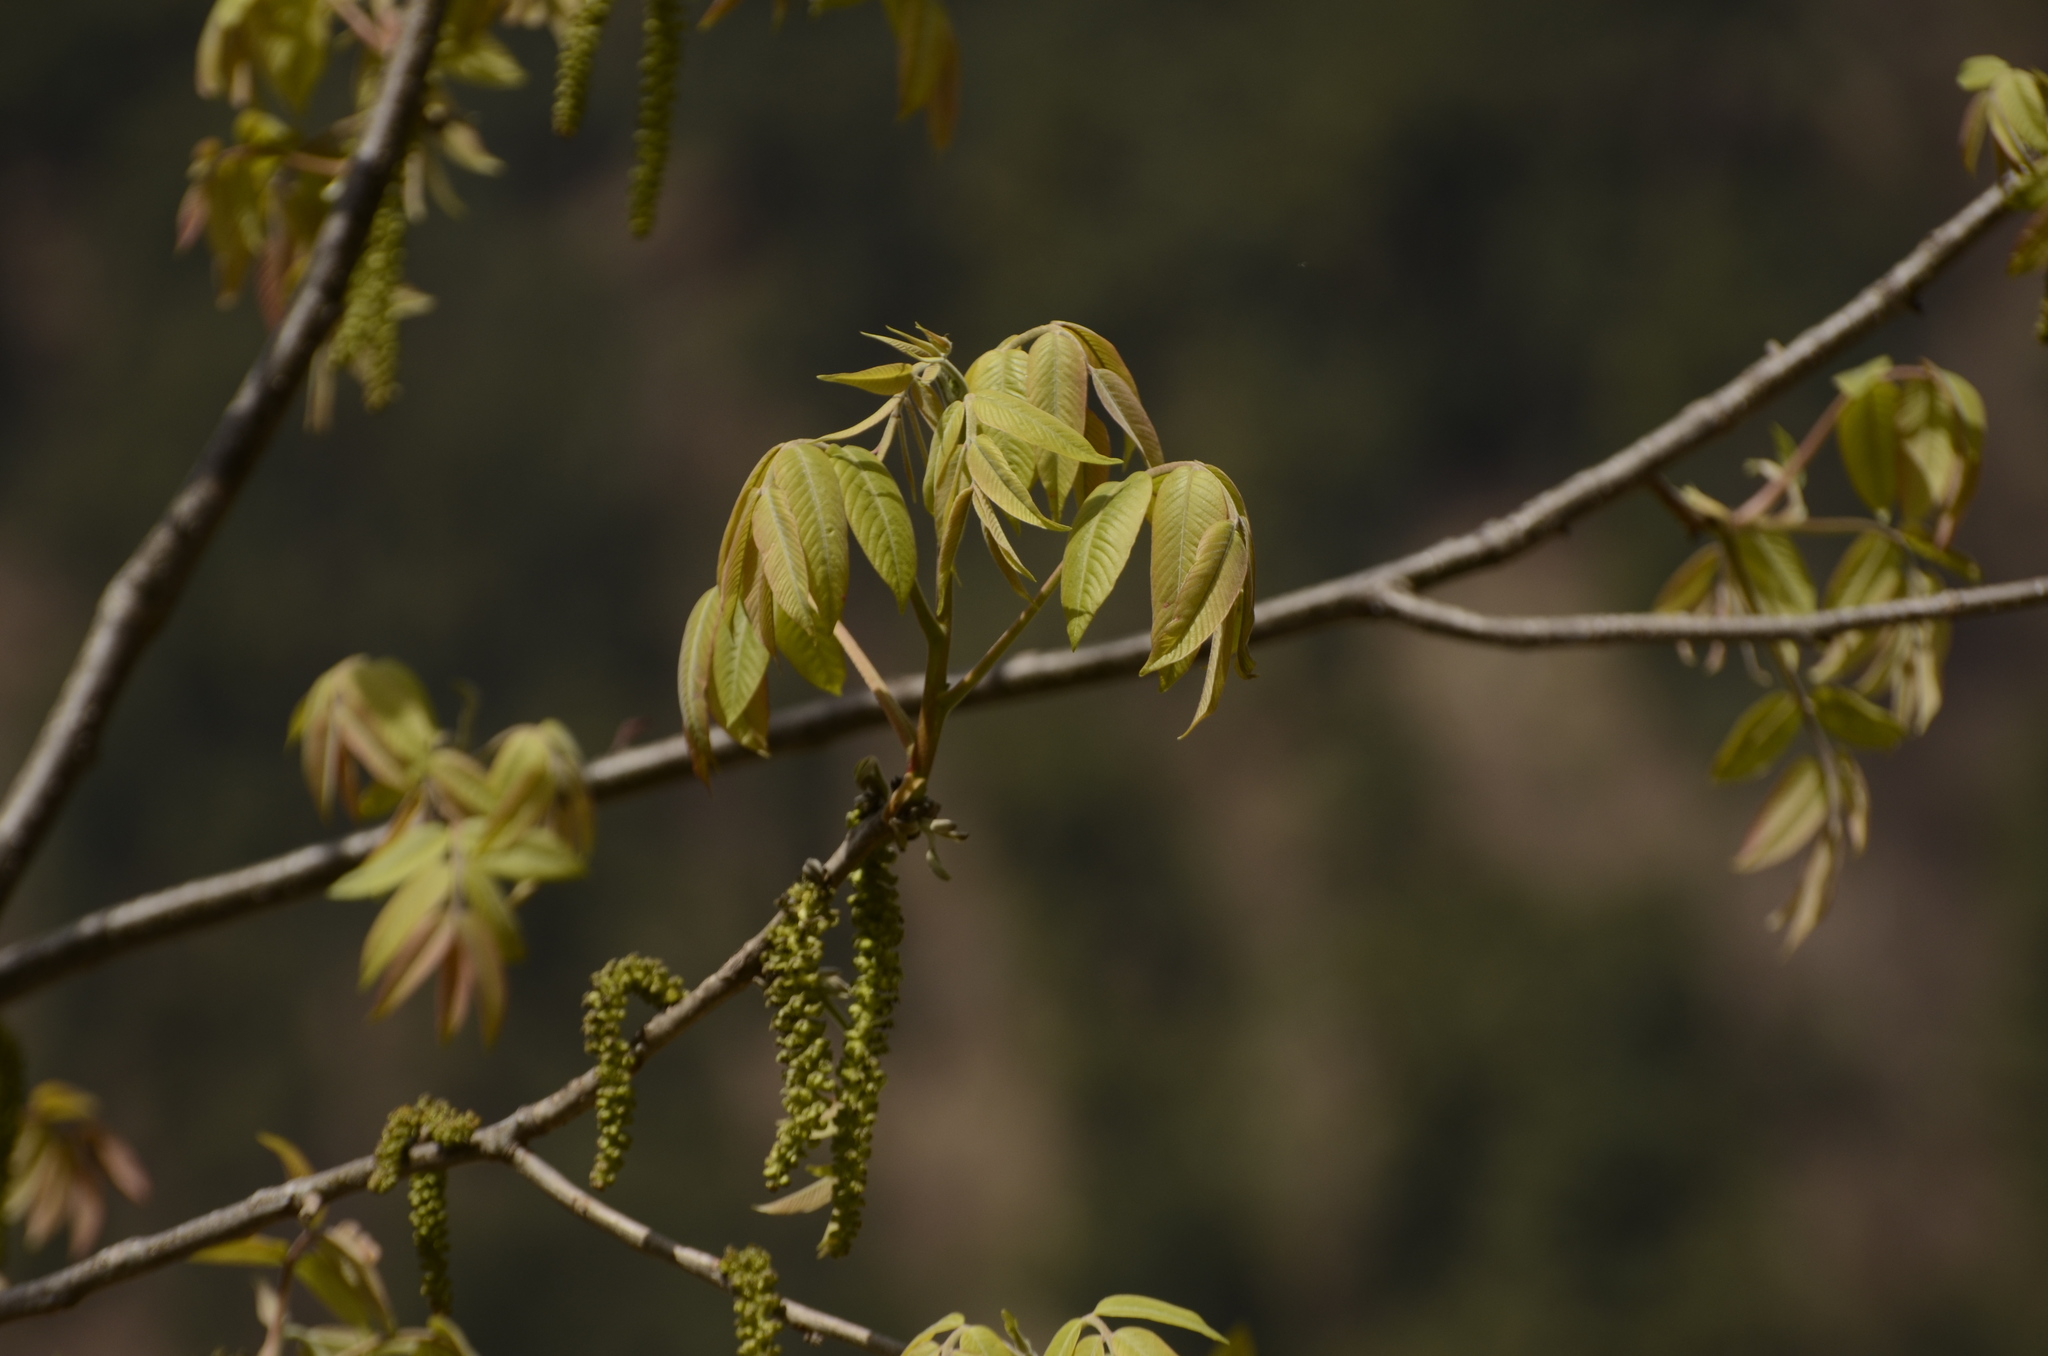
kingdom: Plantae
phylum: Tracheophyta
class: Magnoliopsida
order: Fagales
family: Juglandaceae
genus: Juglans
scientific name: Juglans regia
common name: Walnut
